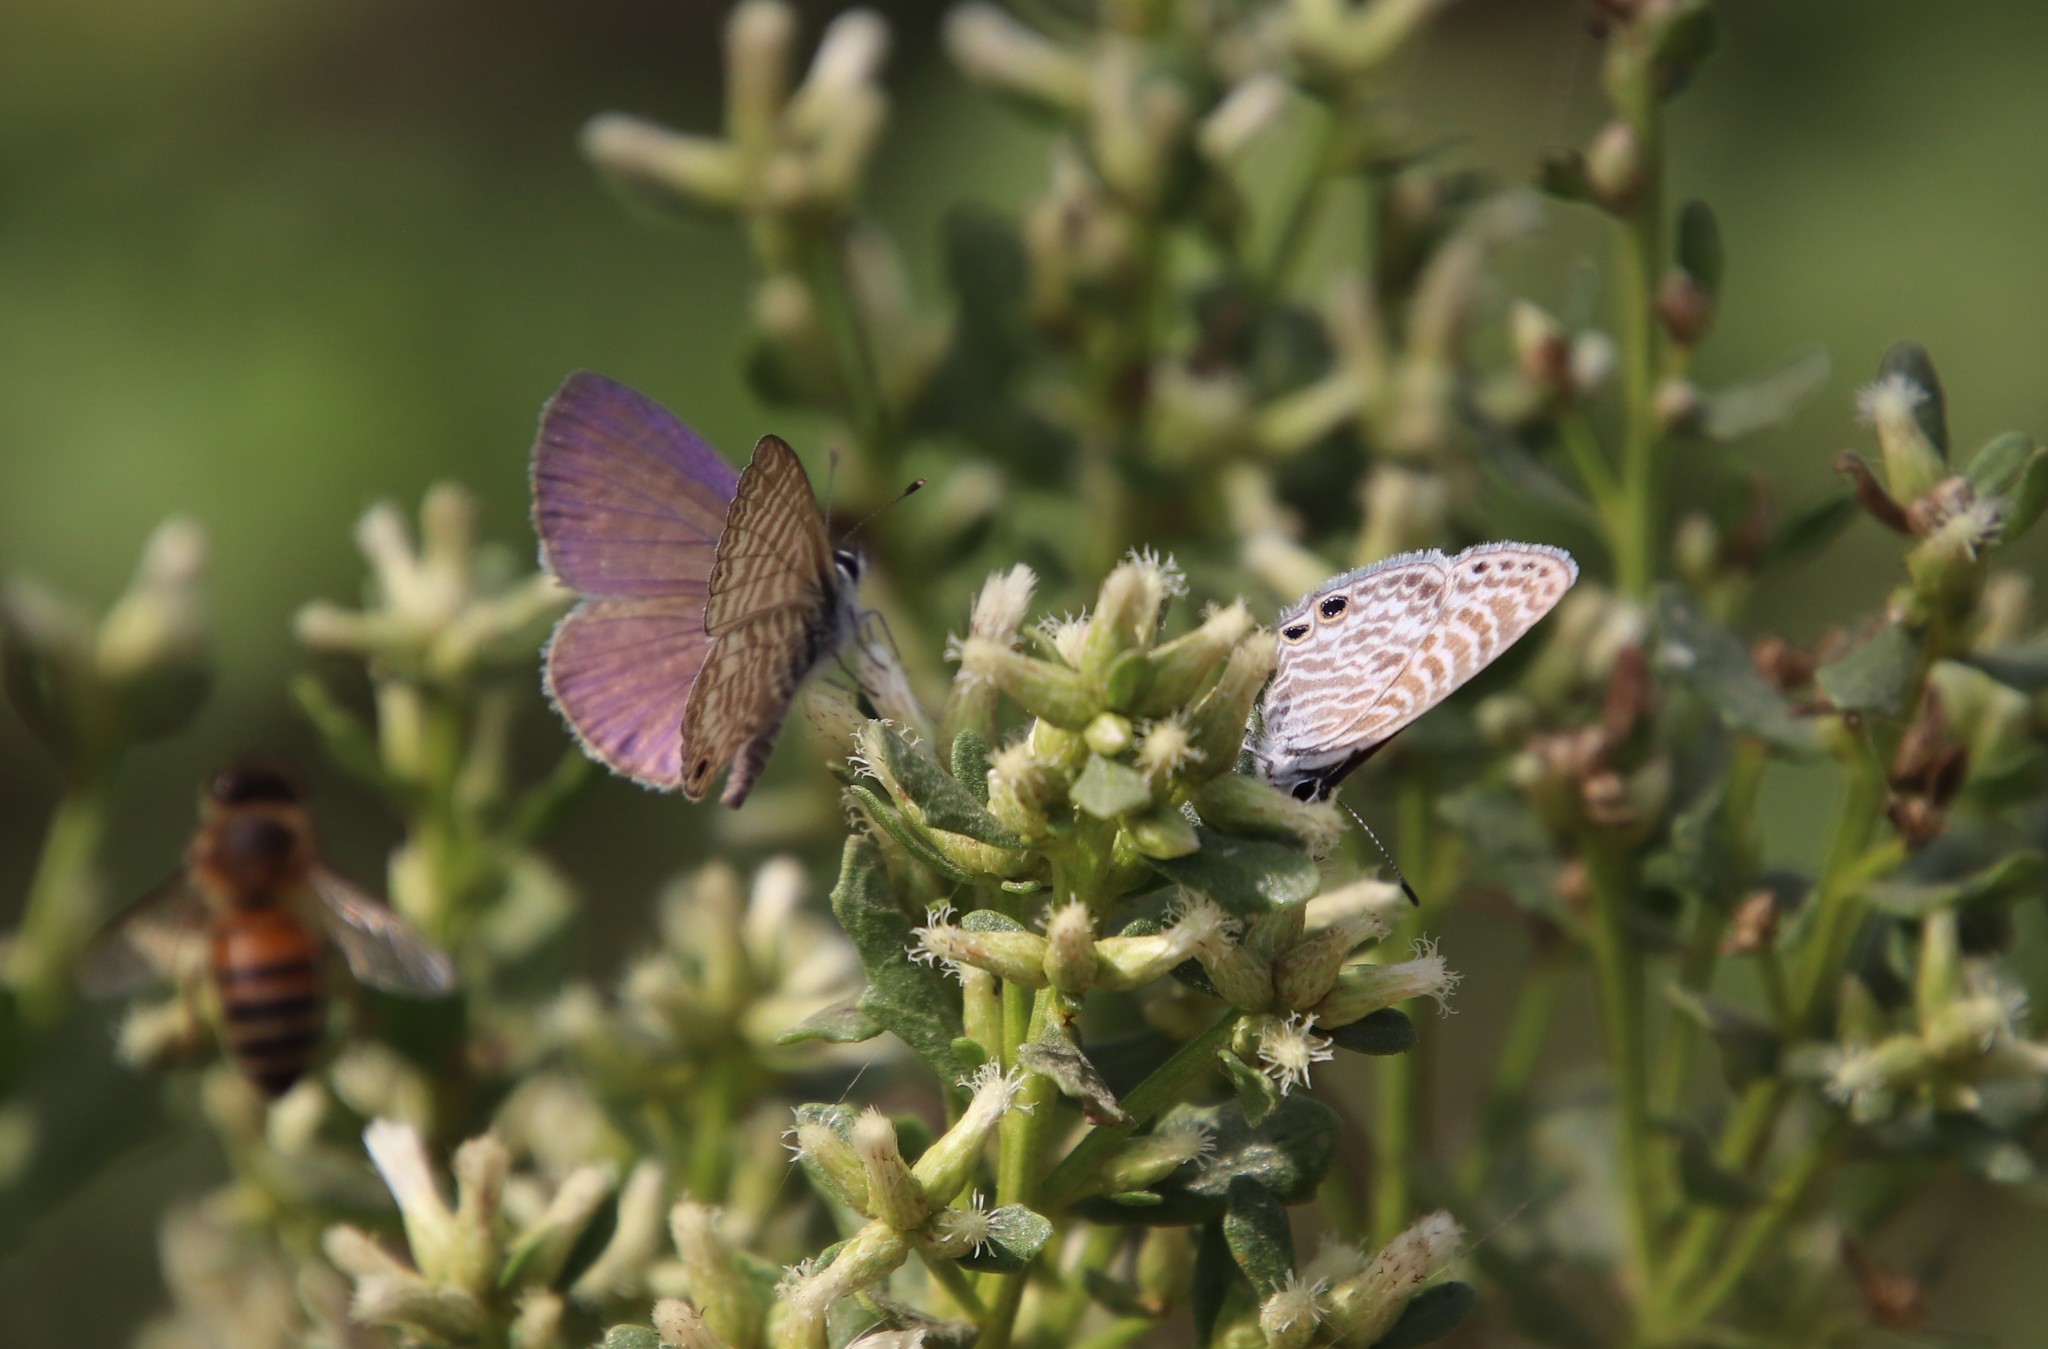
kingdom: Animalia
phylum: Arthropoda
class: Insecta
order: Lepidoptera
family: Lycaenidae
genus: Leptotes
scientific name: Leptotes marina
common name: Marine blue
